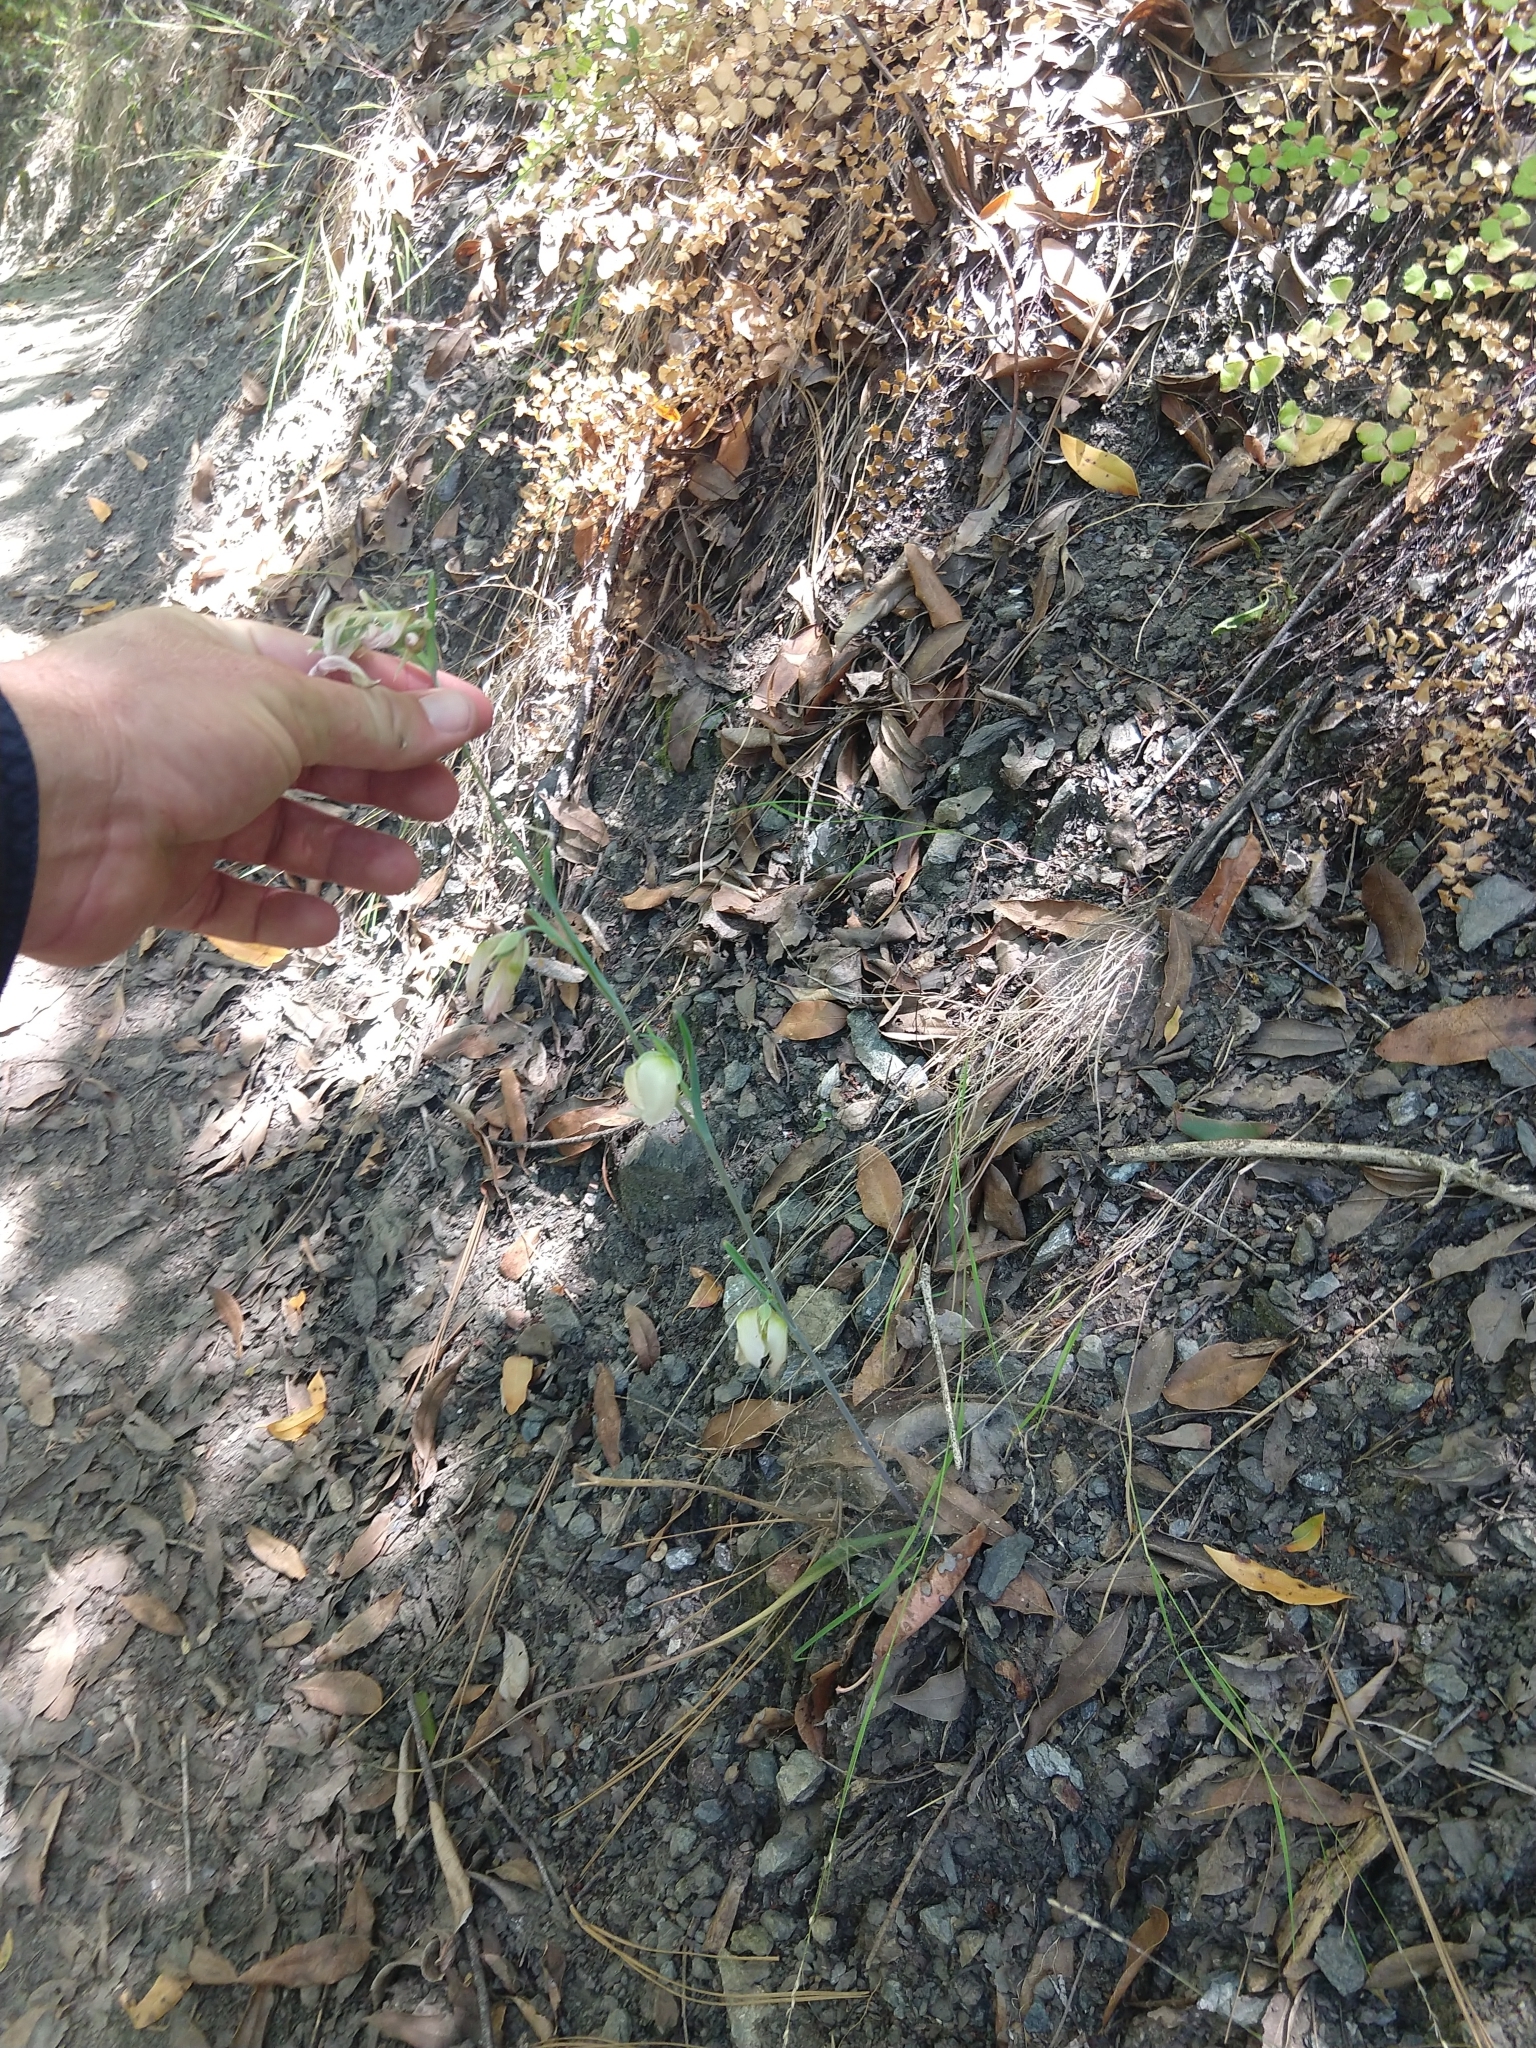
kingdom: Plantae
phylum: Tracheophyta
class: Liliopsida
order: Liliales
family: Liliaceae
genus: Calochortus
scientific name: Calochortus albus
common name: Fairy-lantern
